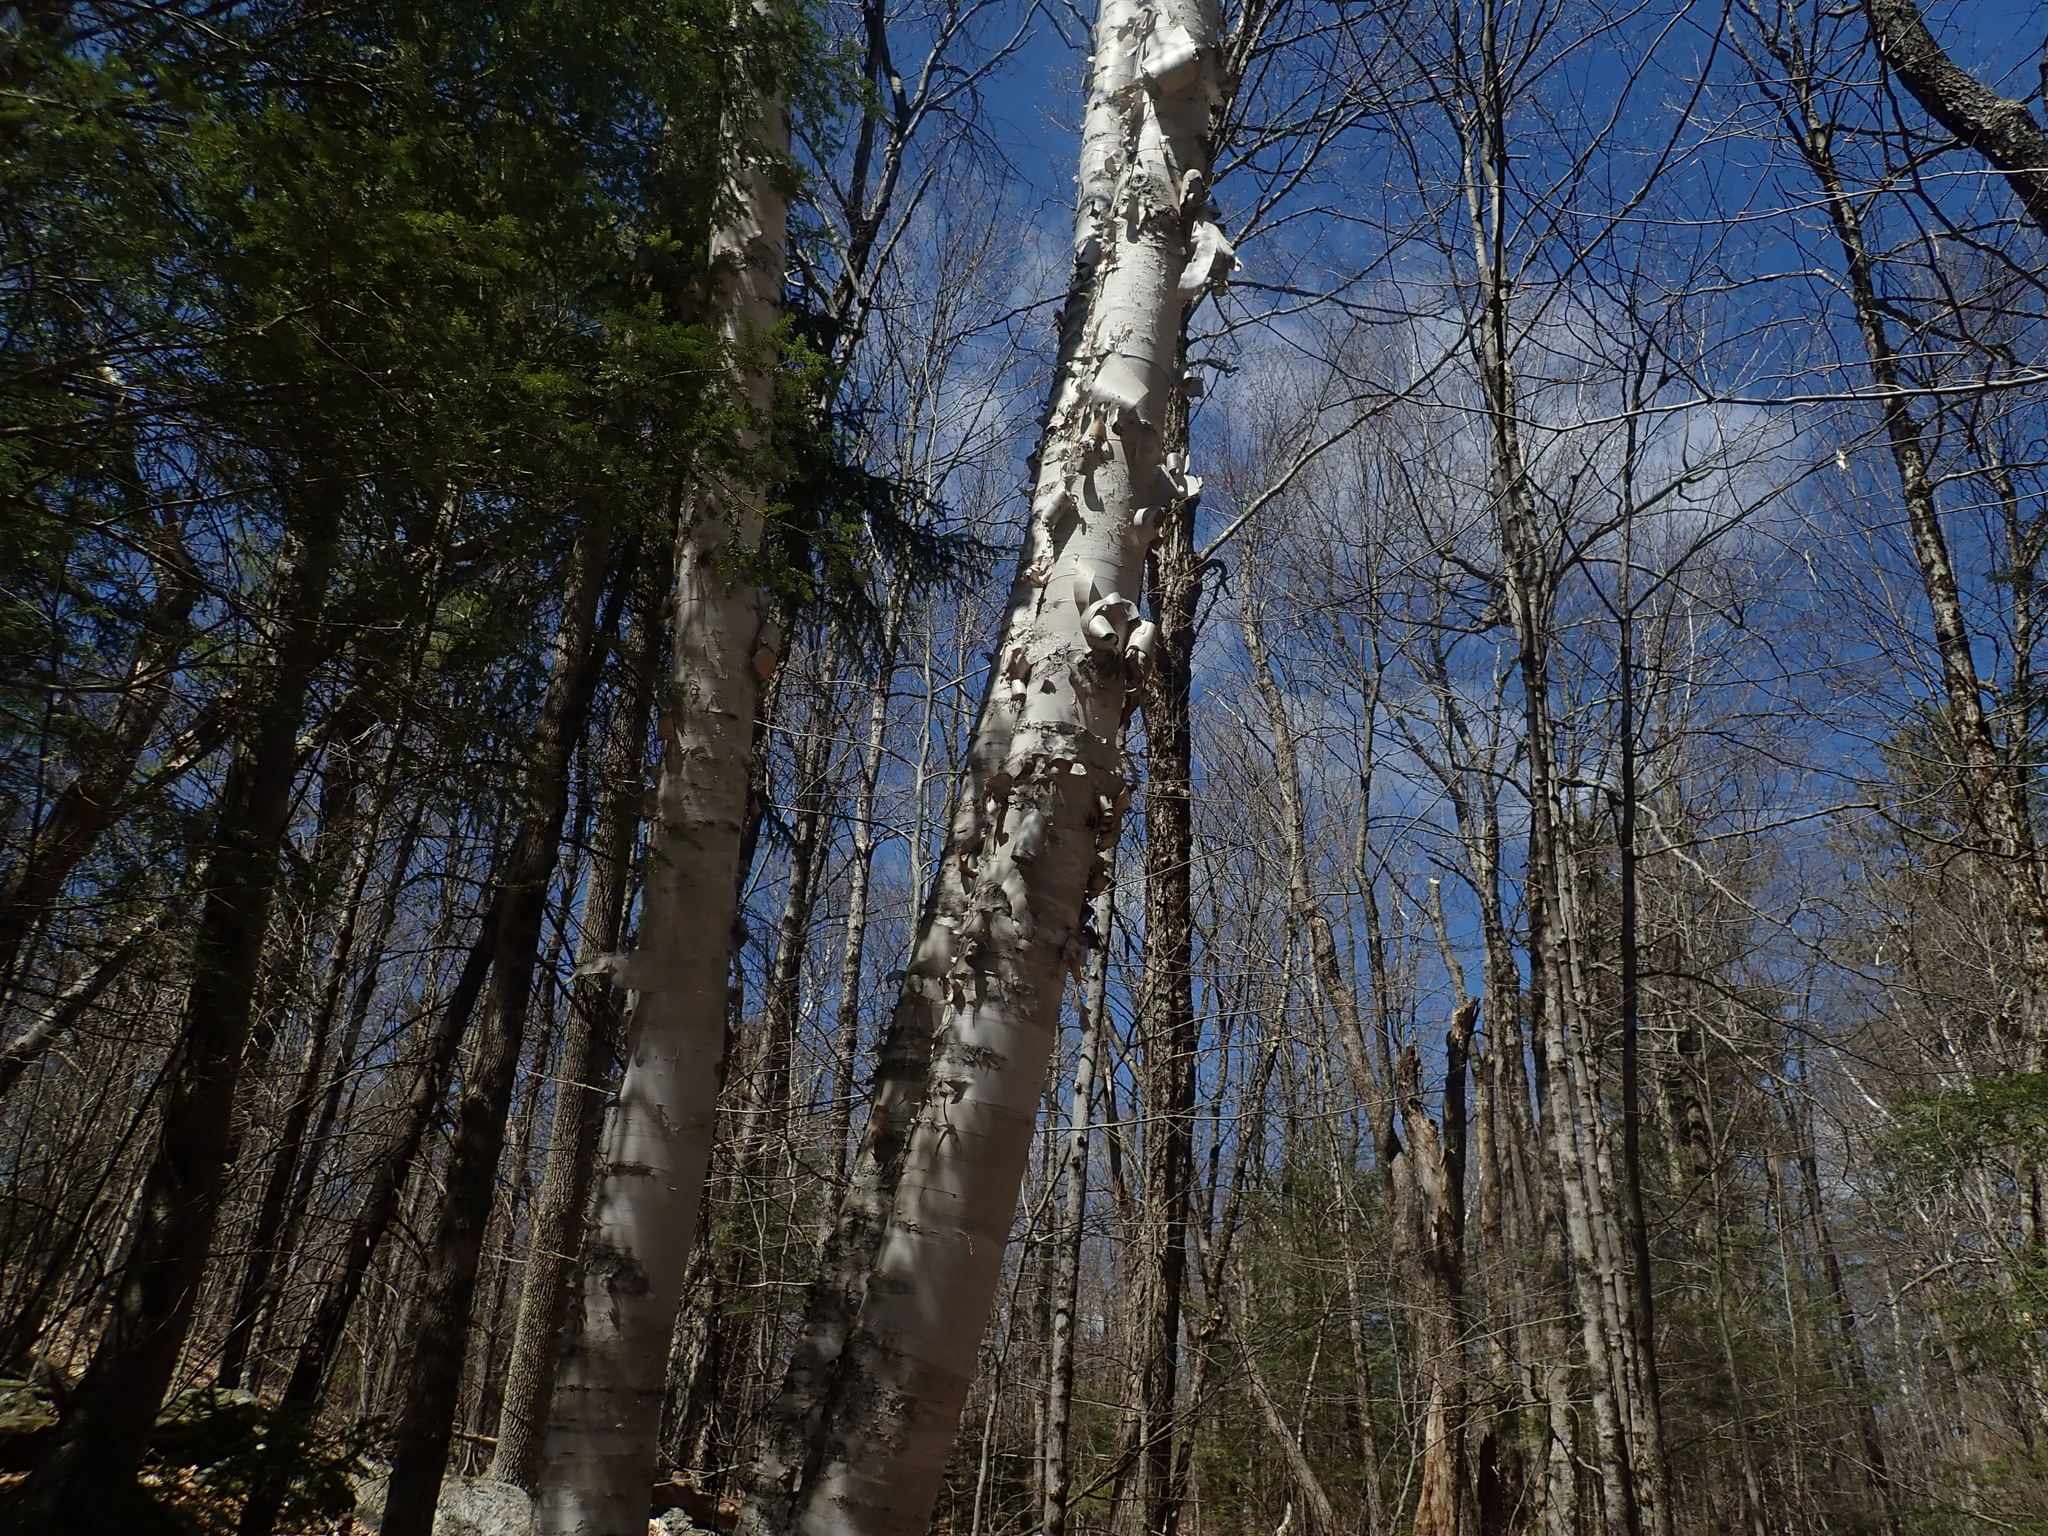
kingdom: Plantae
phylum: Tracheophyta
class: Magnoliopsida
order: Fagales
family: Betulaceae
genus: Betula
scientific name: Betula papyrifera
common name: Paper birch
